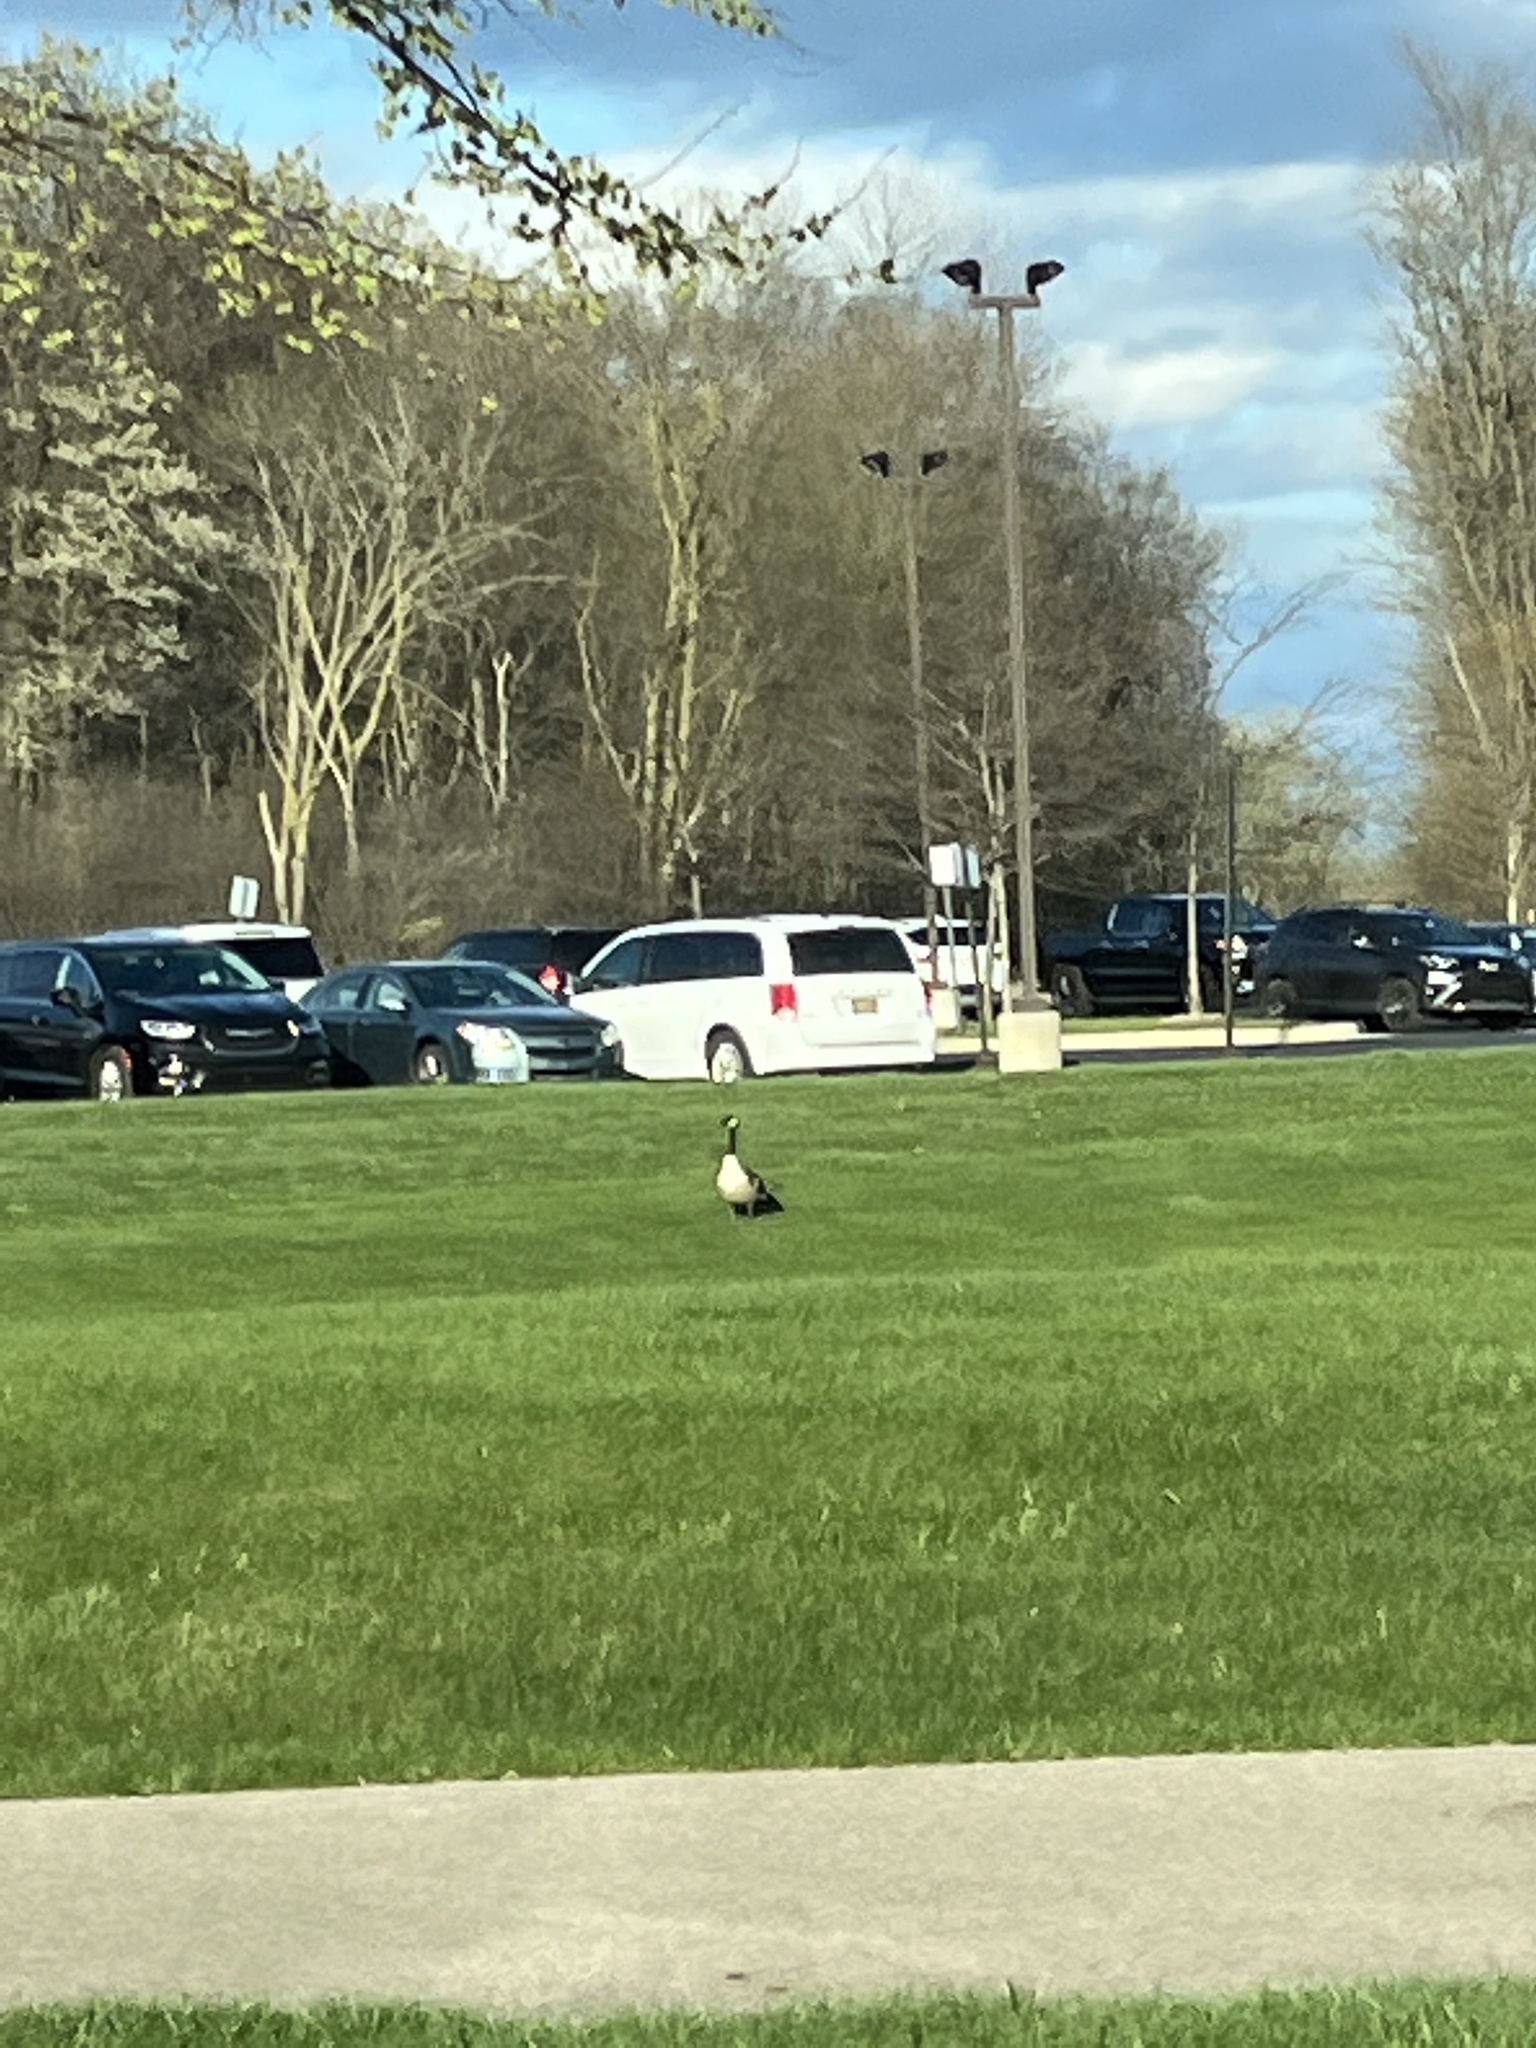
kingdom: Animalia
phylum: Chordata
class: Aves
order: Anseriformes
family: Anatidae
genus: Branta
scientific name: Branta canadensis
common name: Canada goose
